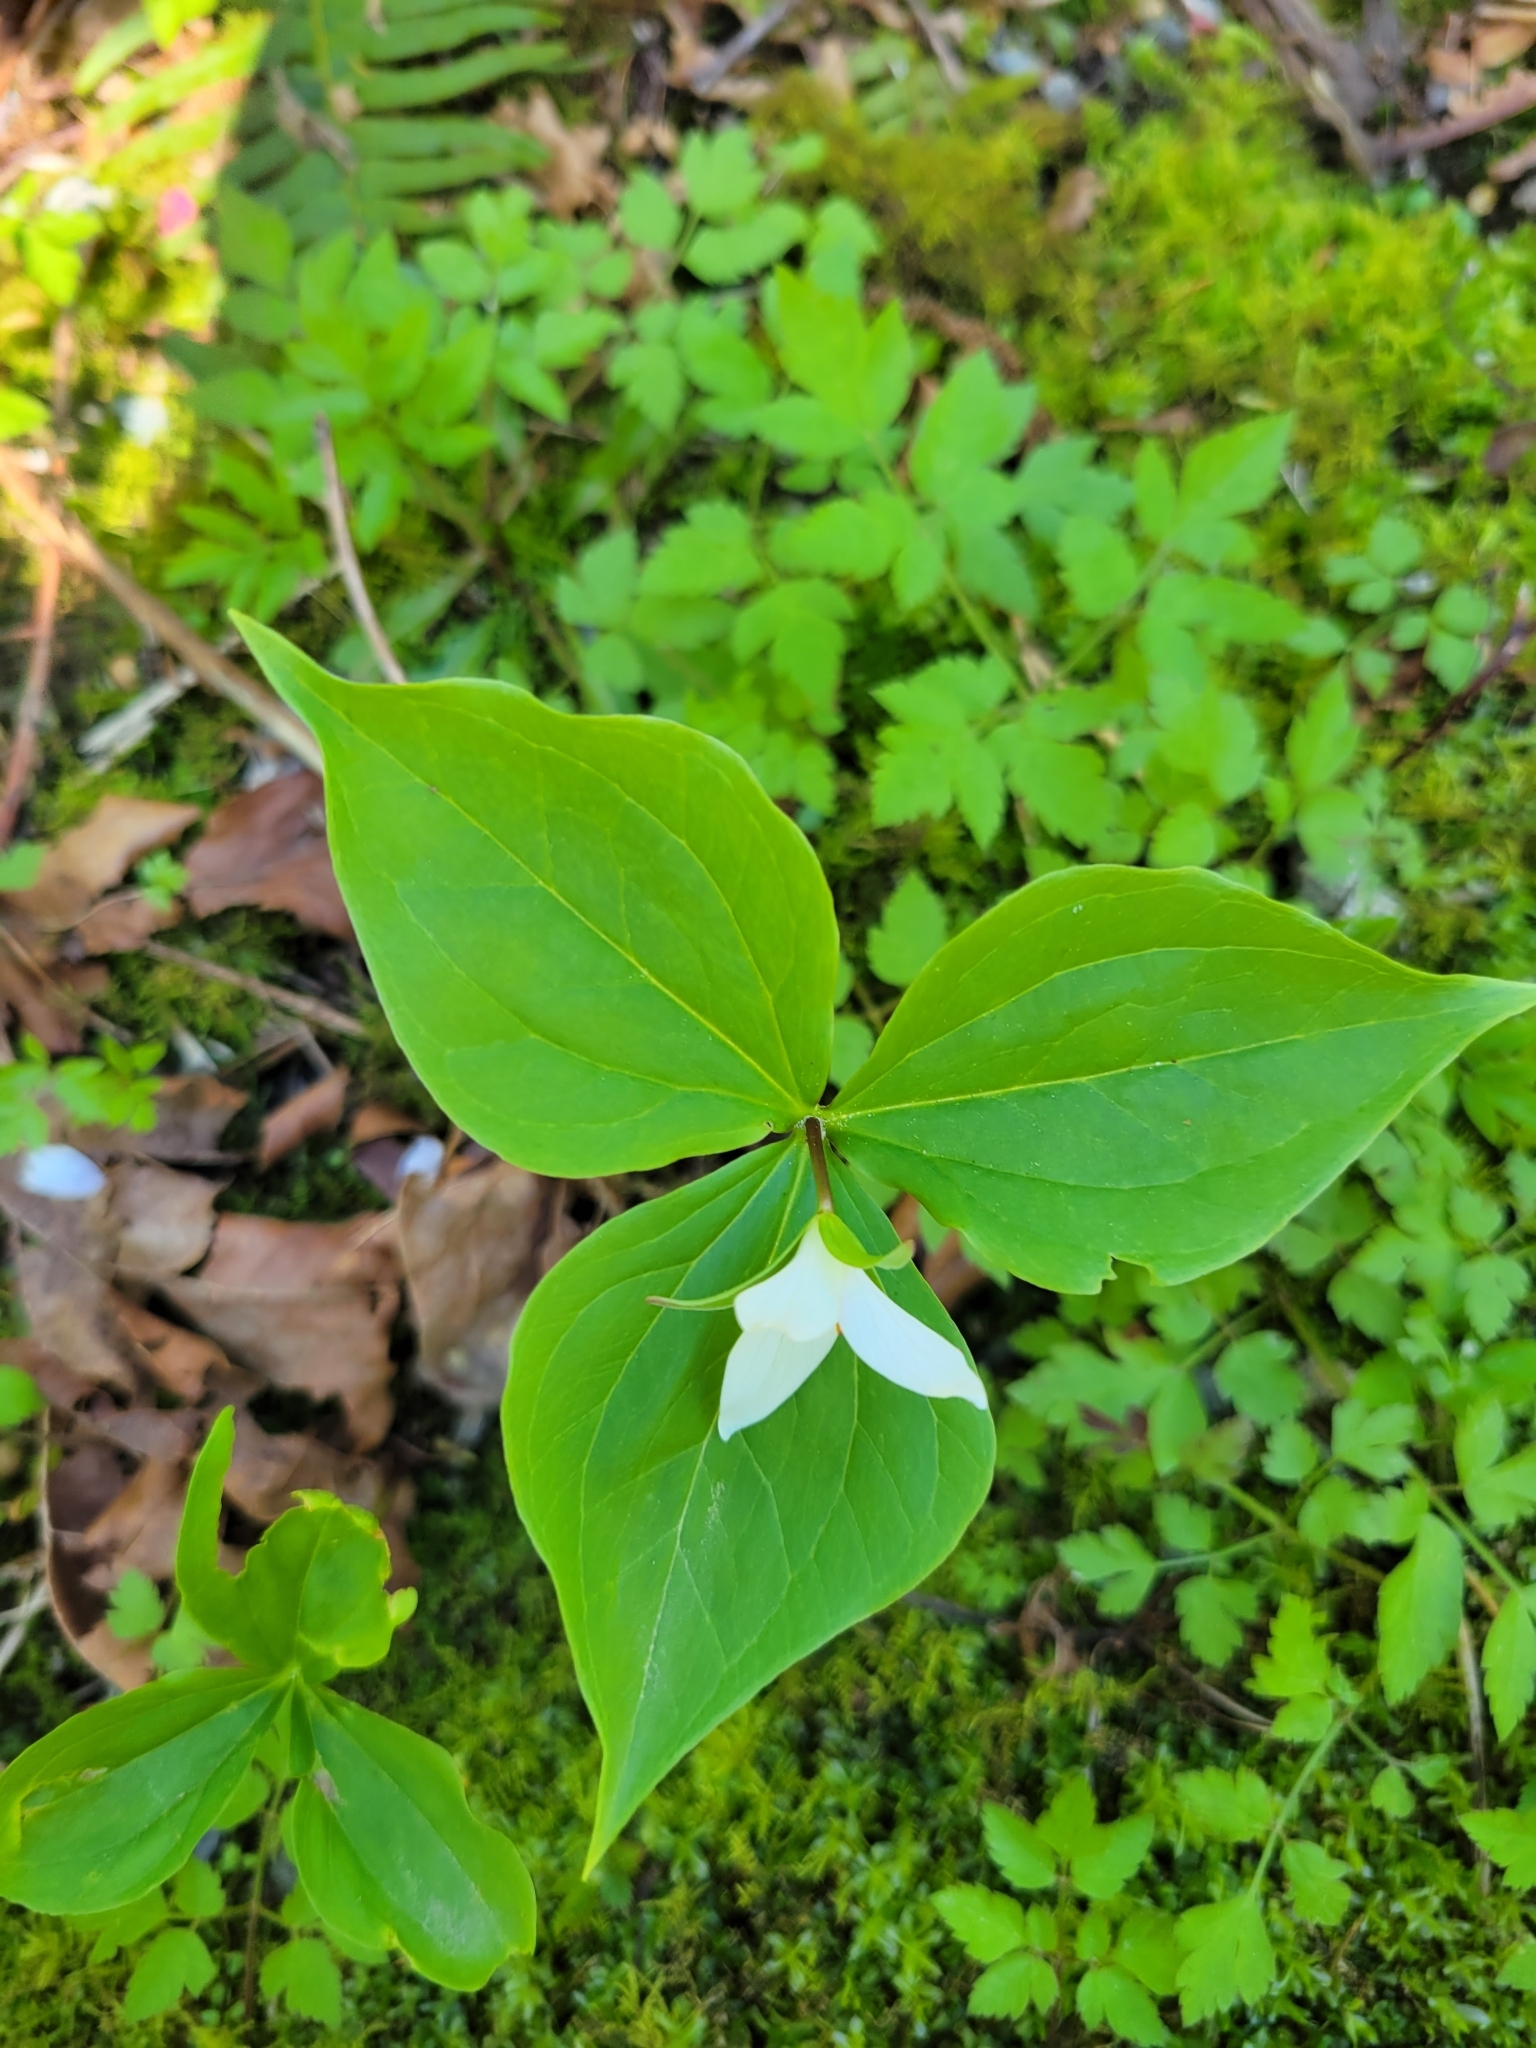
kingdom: Plantae
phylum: Tracheophyta
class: Liliopsida
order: Liliales
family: Melanthiaceae
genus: Trillium
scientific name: Trillium ovatum
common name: Pacific trillium
